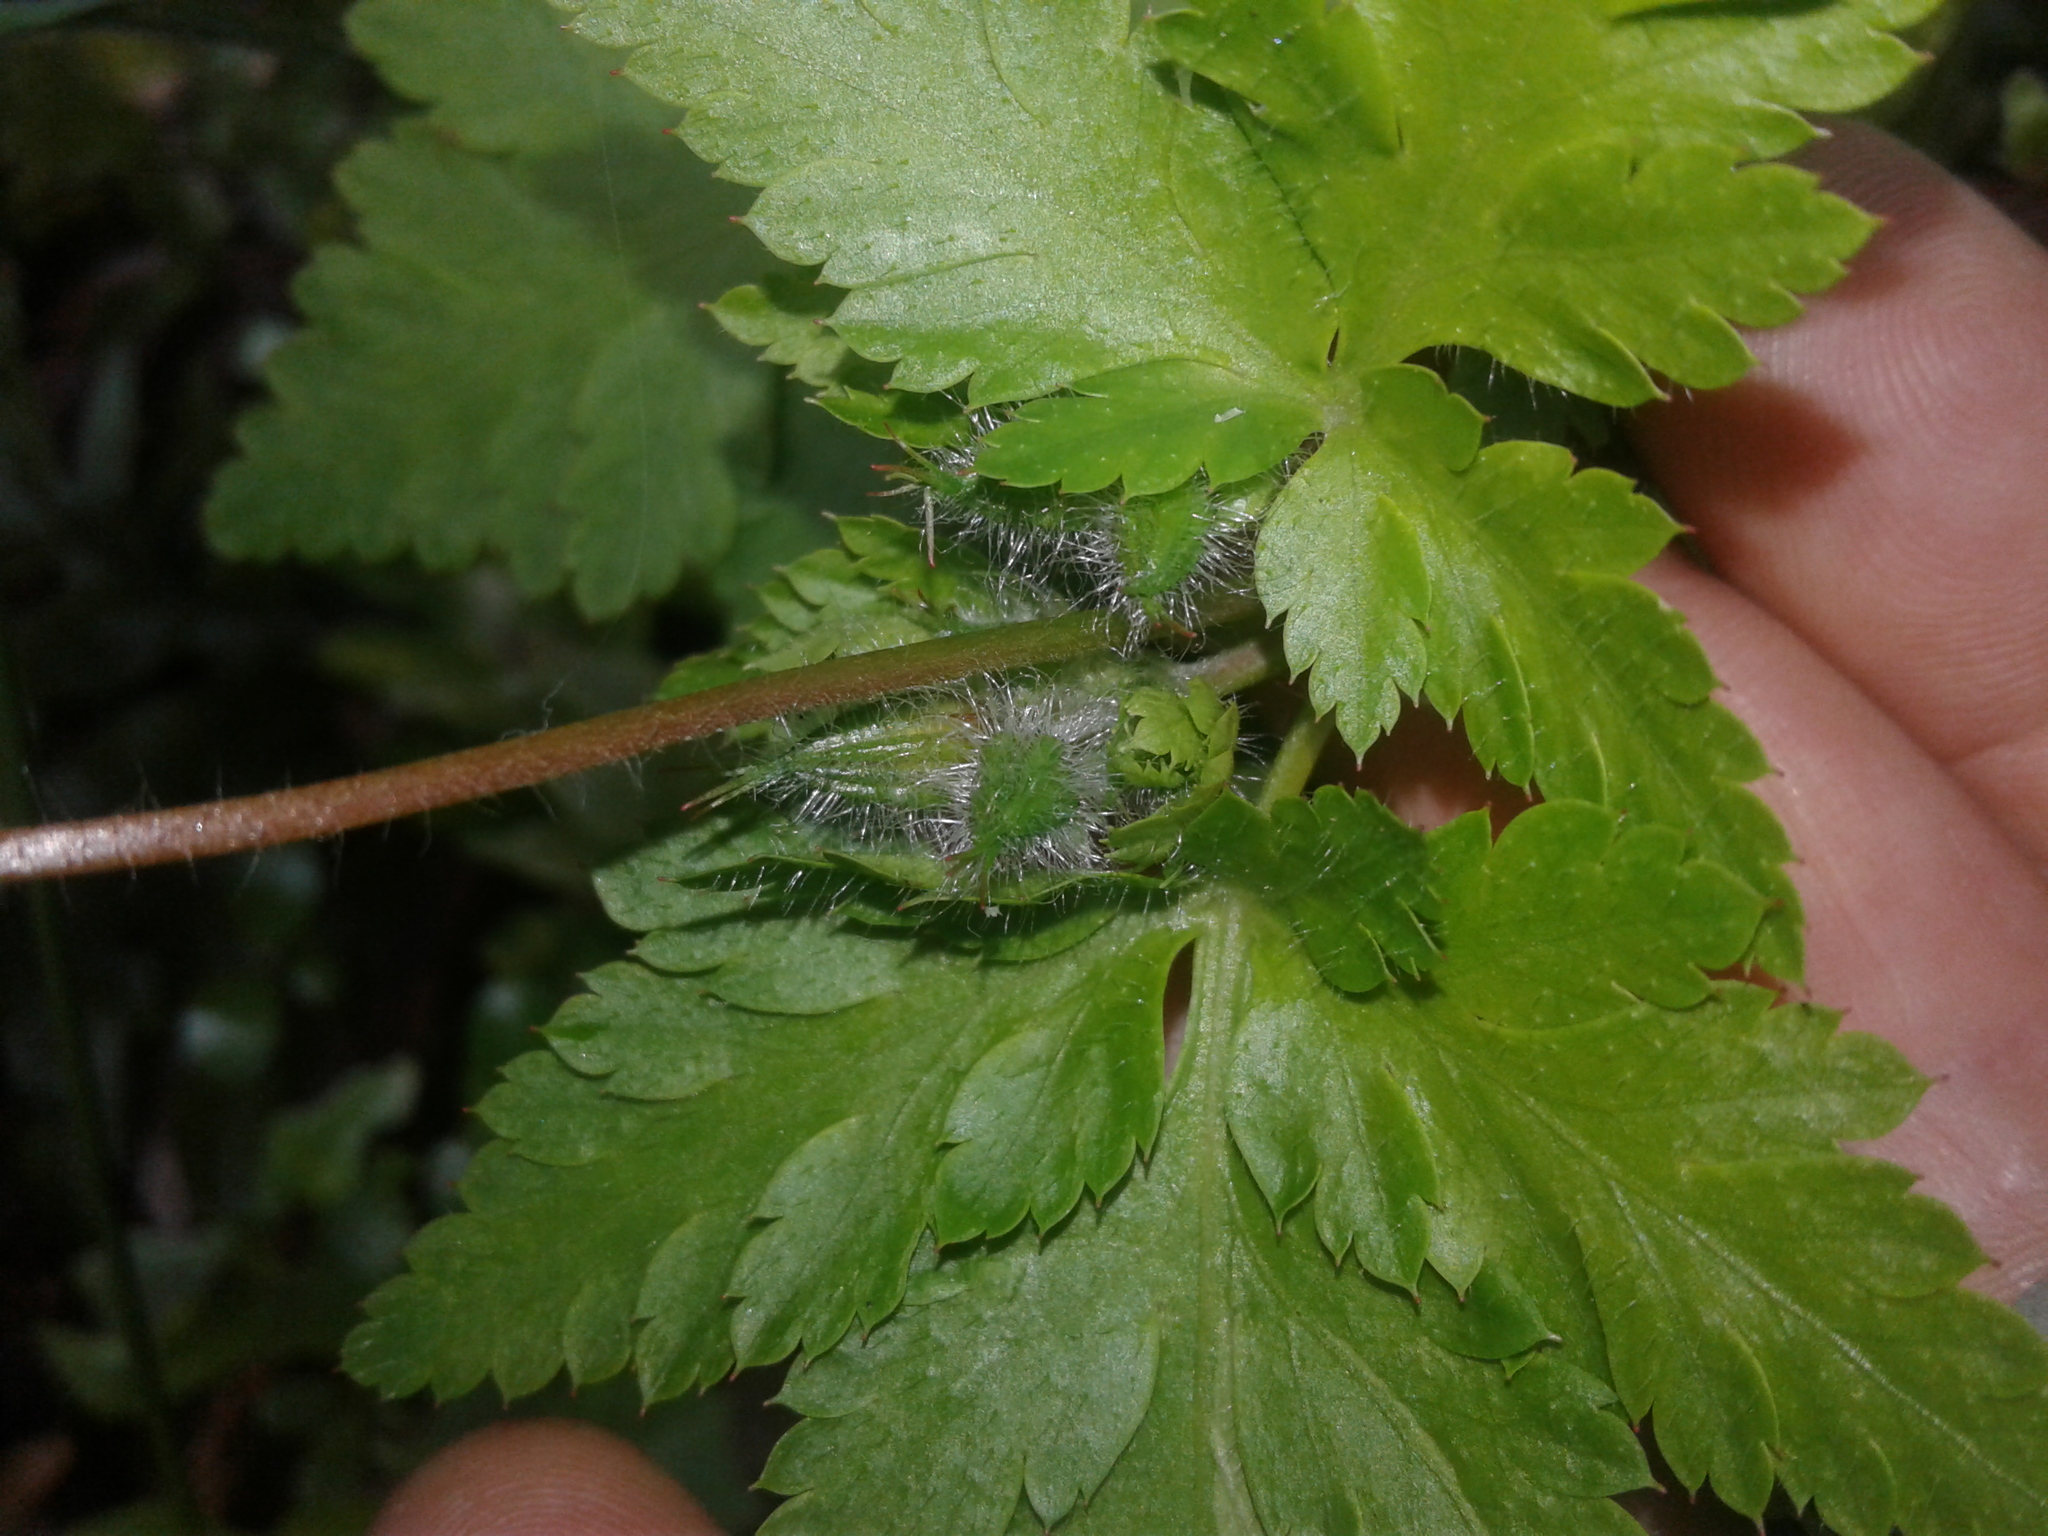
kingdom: Plantae
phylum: Tracheophyta
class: Magnoliopsida
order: Geraniales
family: Geraniaceae
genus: Geranium
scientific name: Geranium robertianum
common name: Herb-robert
